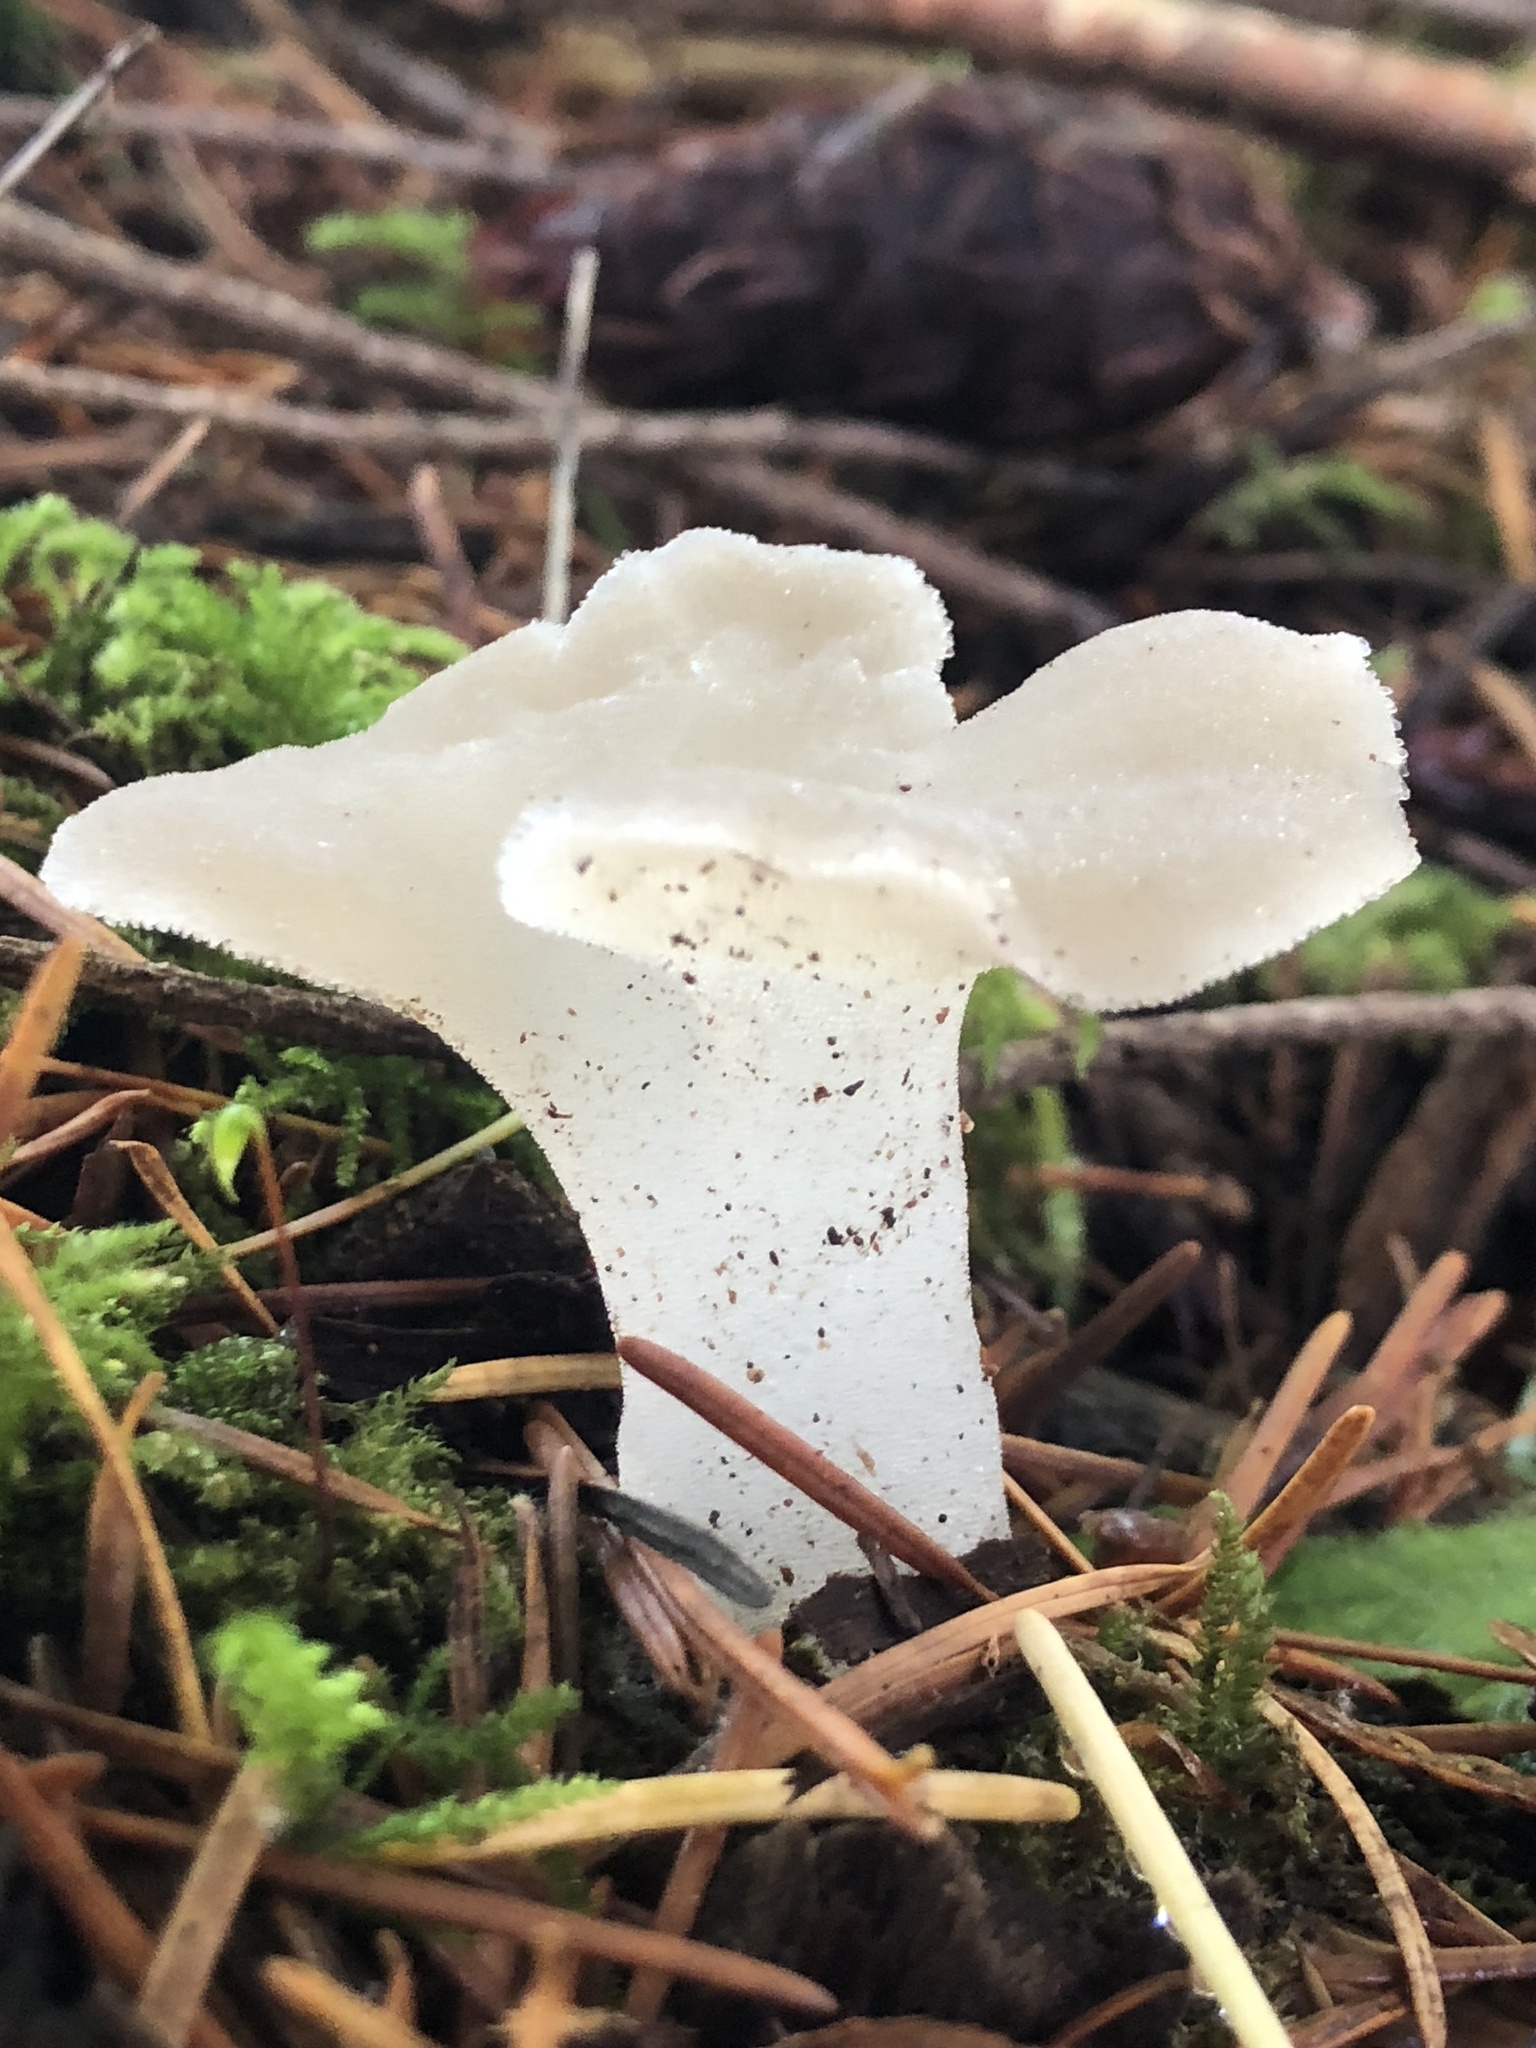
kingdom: Fungi
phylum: Basidiomycota
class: Agaricomycetes
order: Auriculariales
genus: Pseudohydnum
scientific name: Pseudohydnum gelatinosum
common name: Jelly tongue
